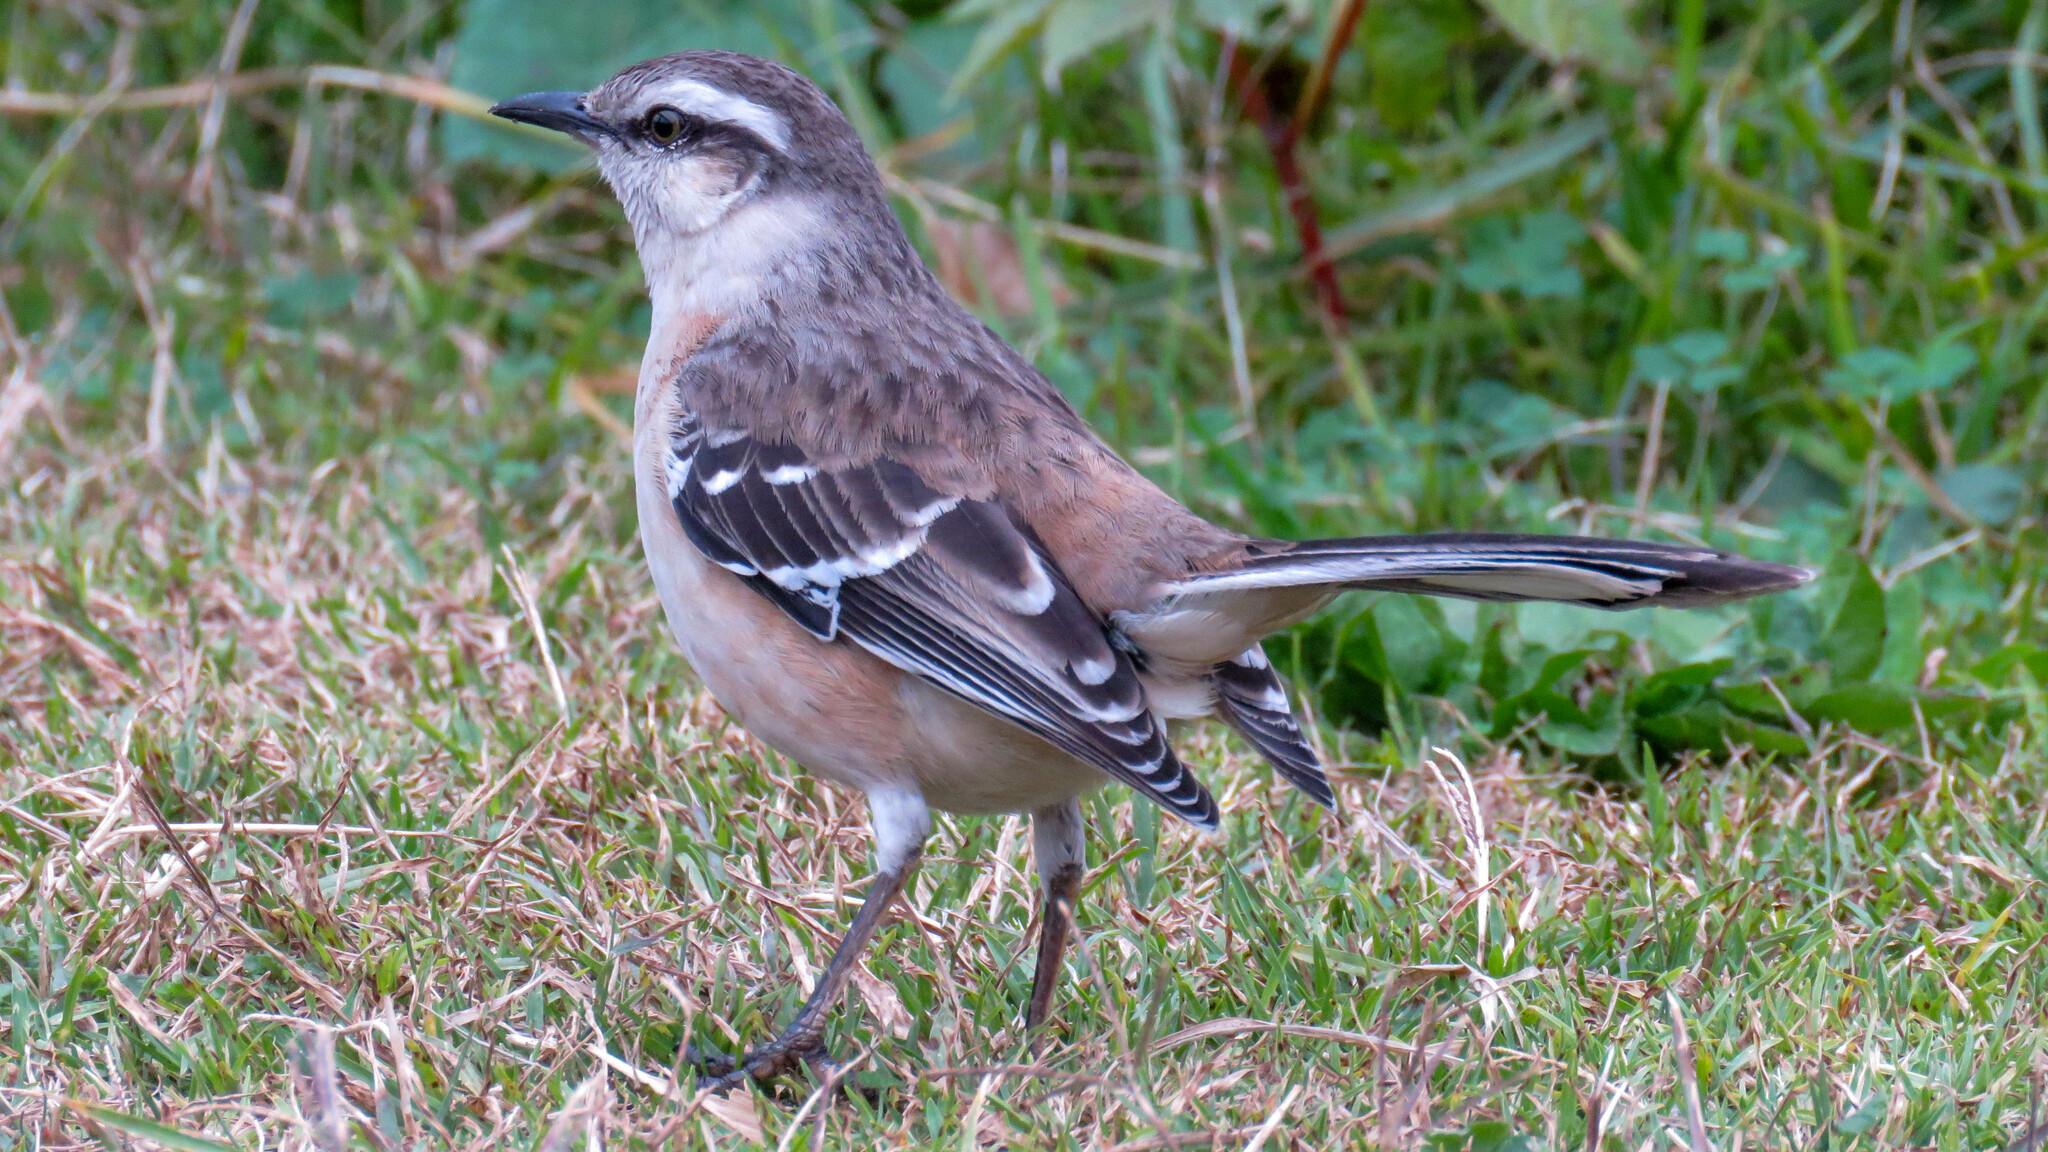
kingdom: Animalia
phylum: Chordata
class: Aves
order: Passeriformes
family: Mimidae
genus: Mimus
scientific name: Mimus saturninus
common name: Chalk-browed mockingbird
